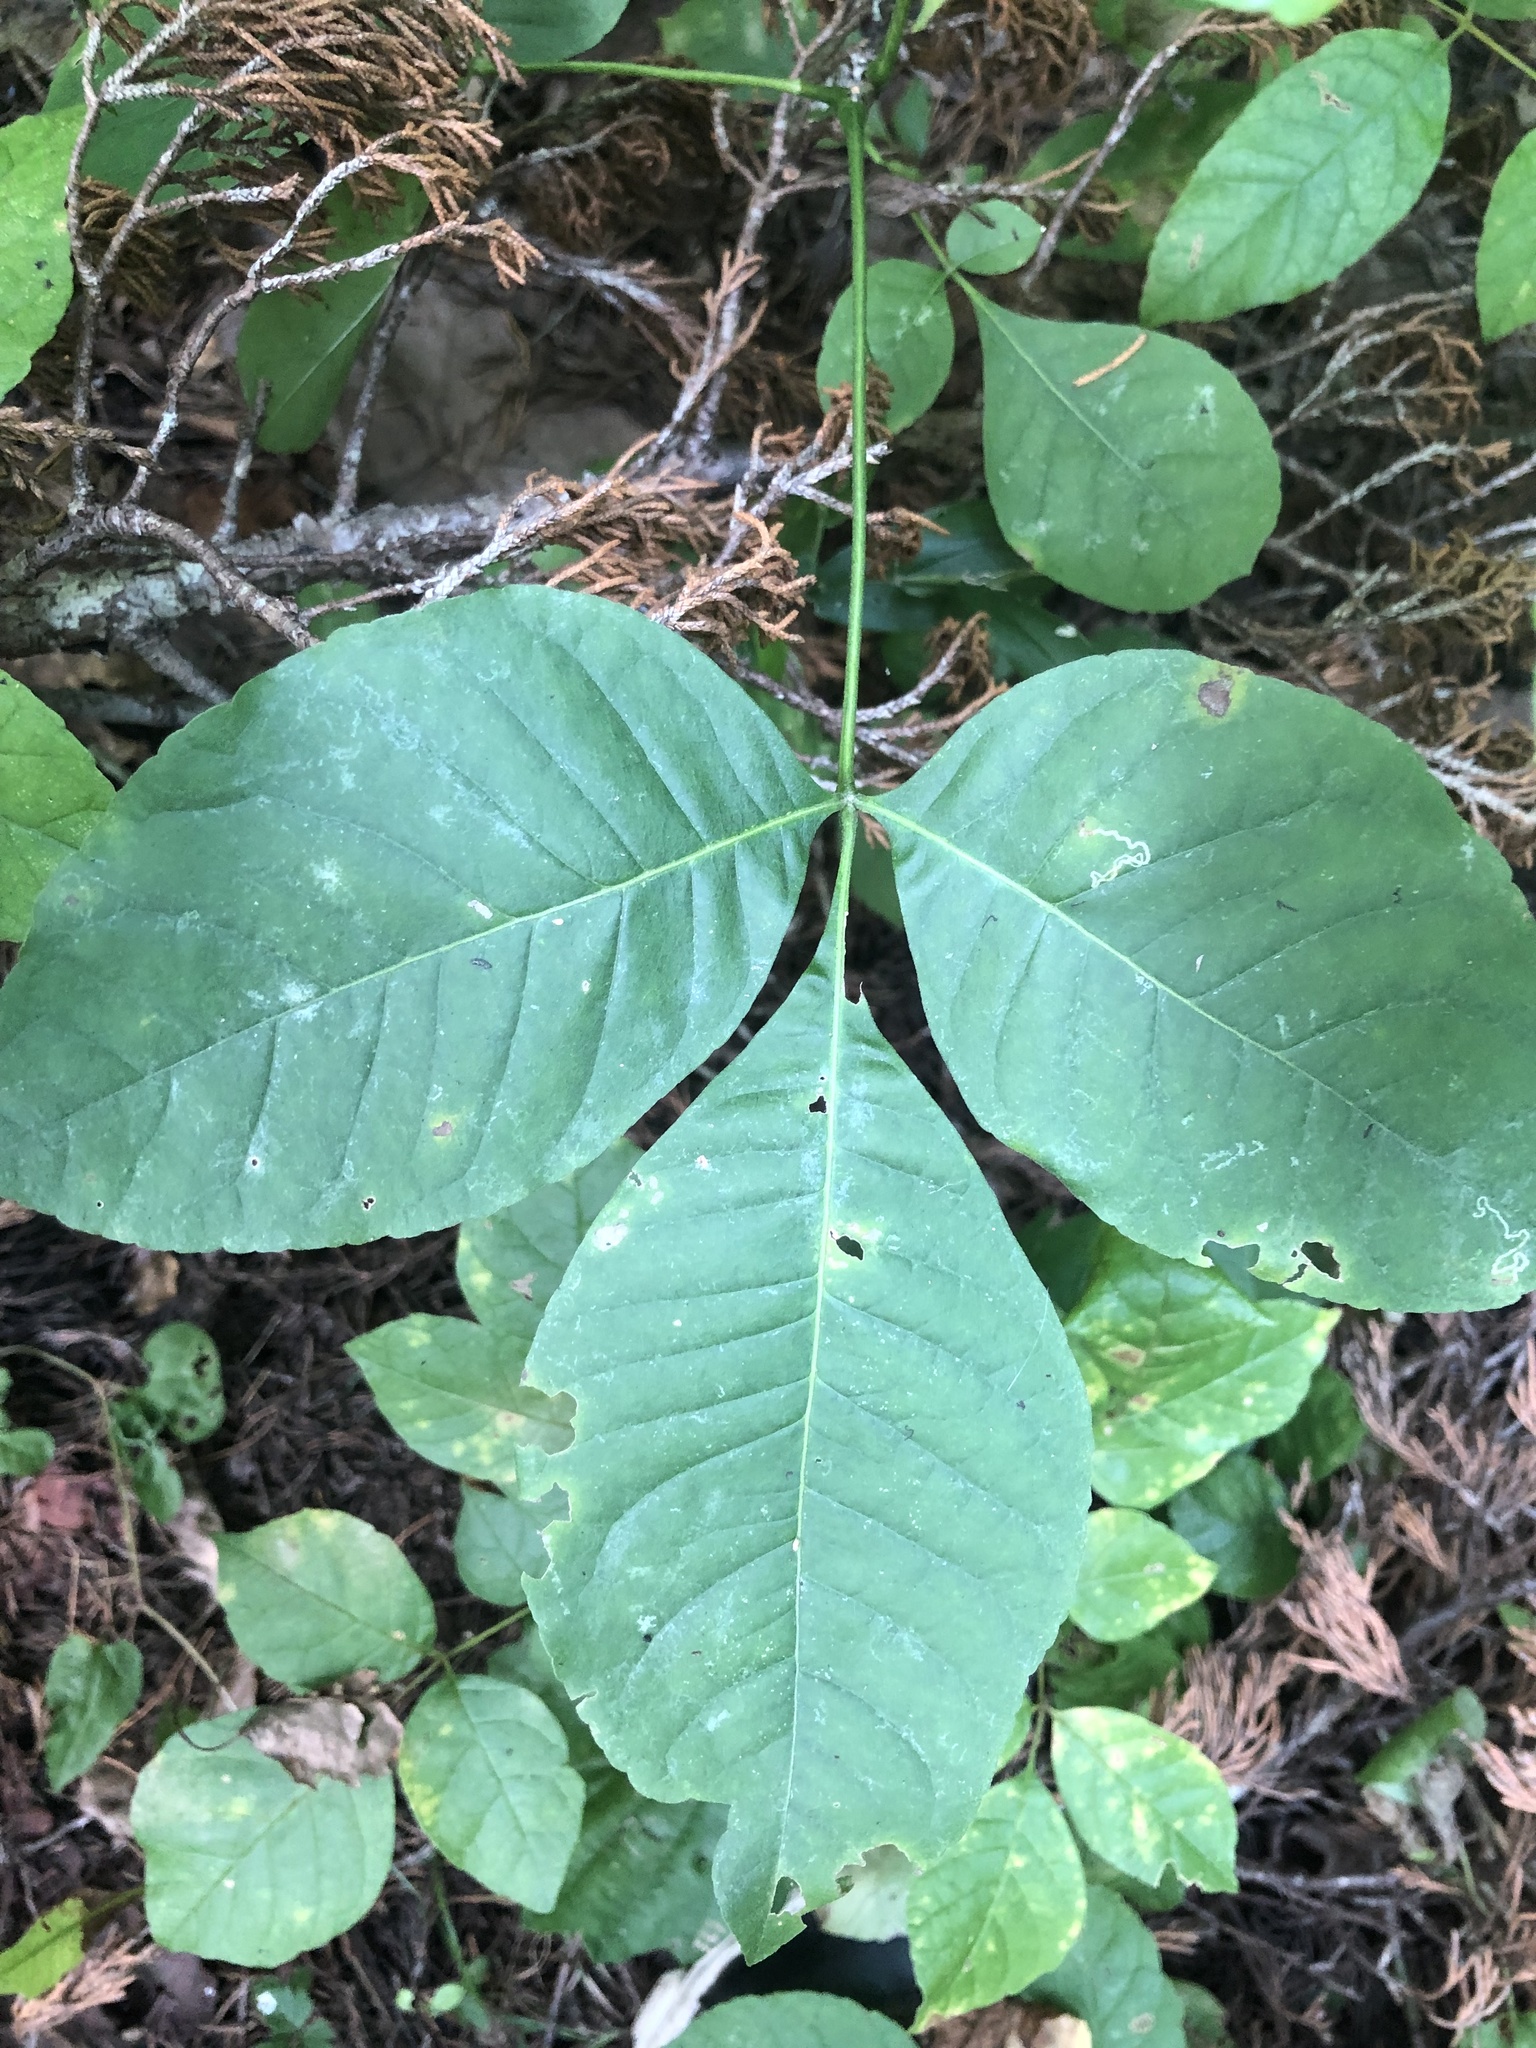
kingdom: Plantae
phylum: Tracheophyta
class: Magnoliopsida
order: Sapindales
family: Rutaceae
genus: Ptelea
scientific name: Ptelea trifoliata
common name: Common hop-tree
